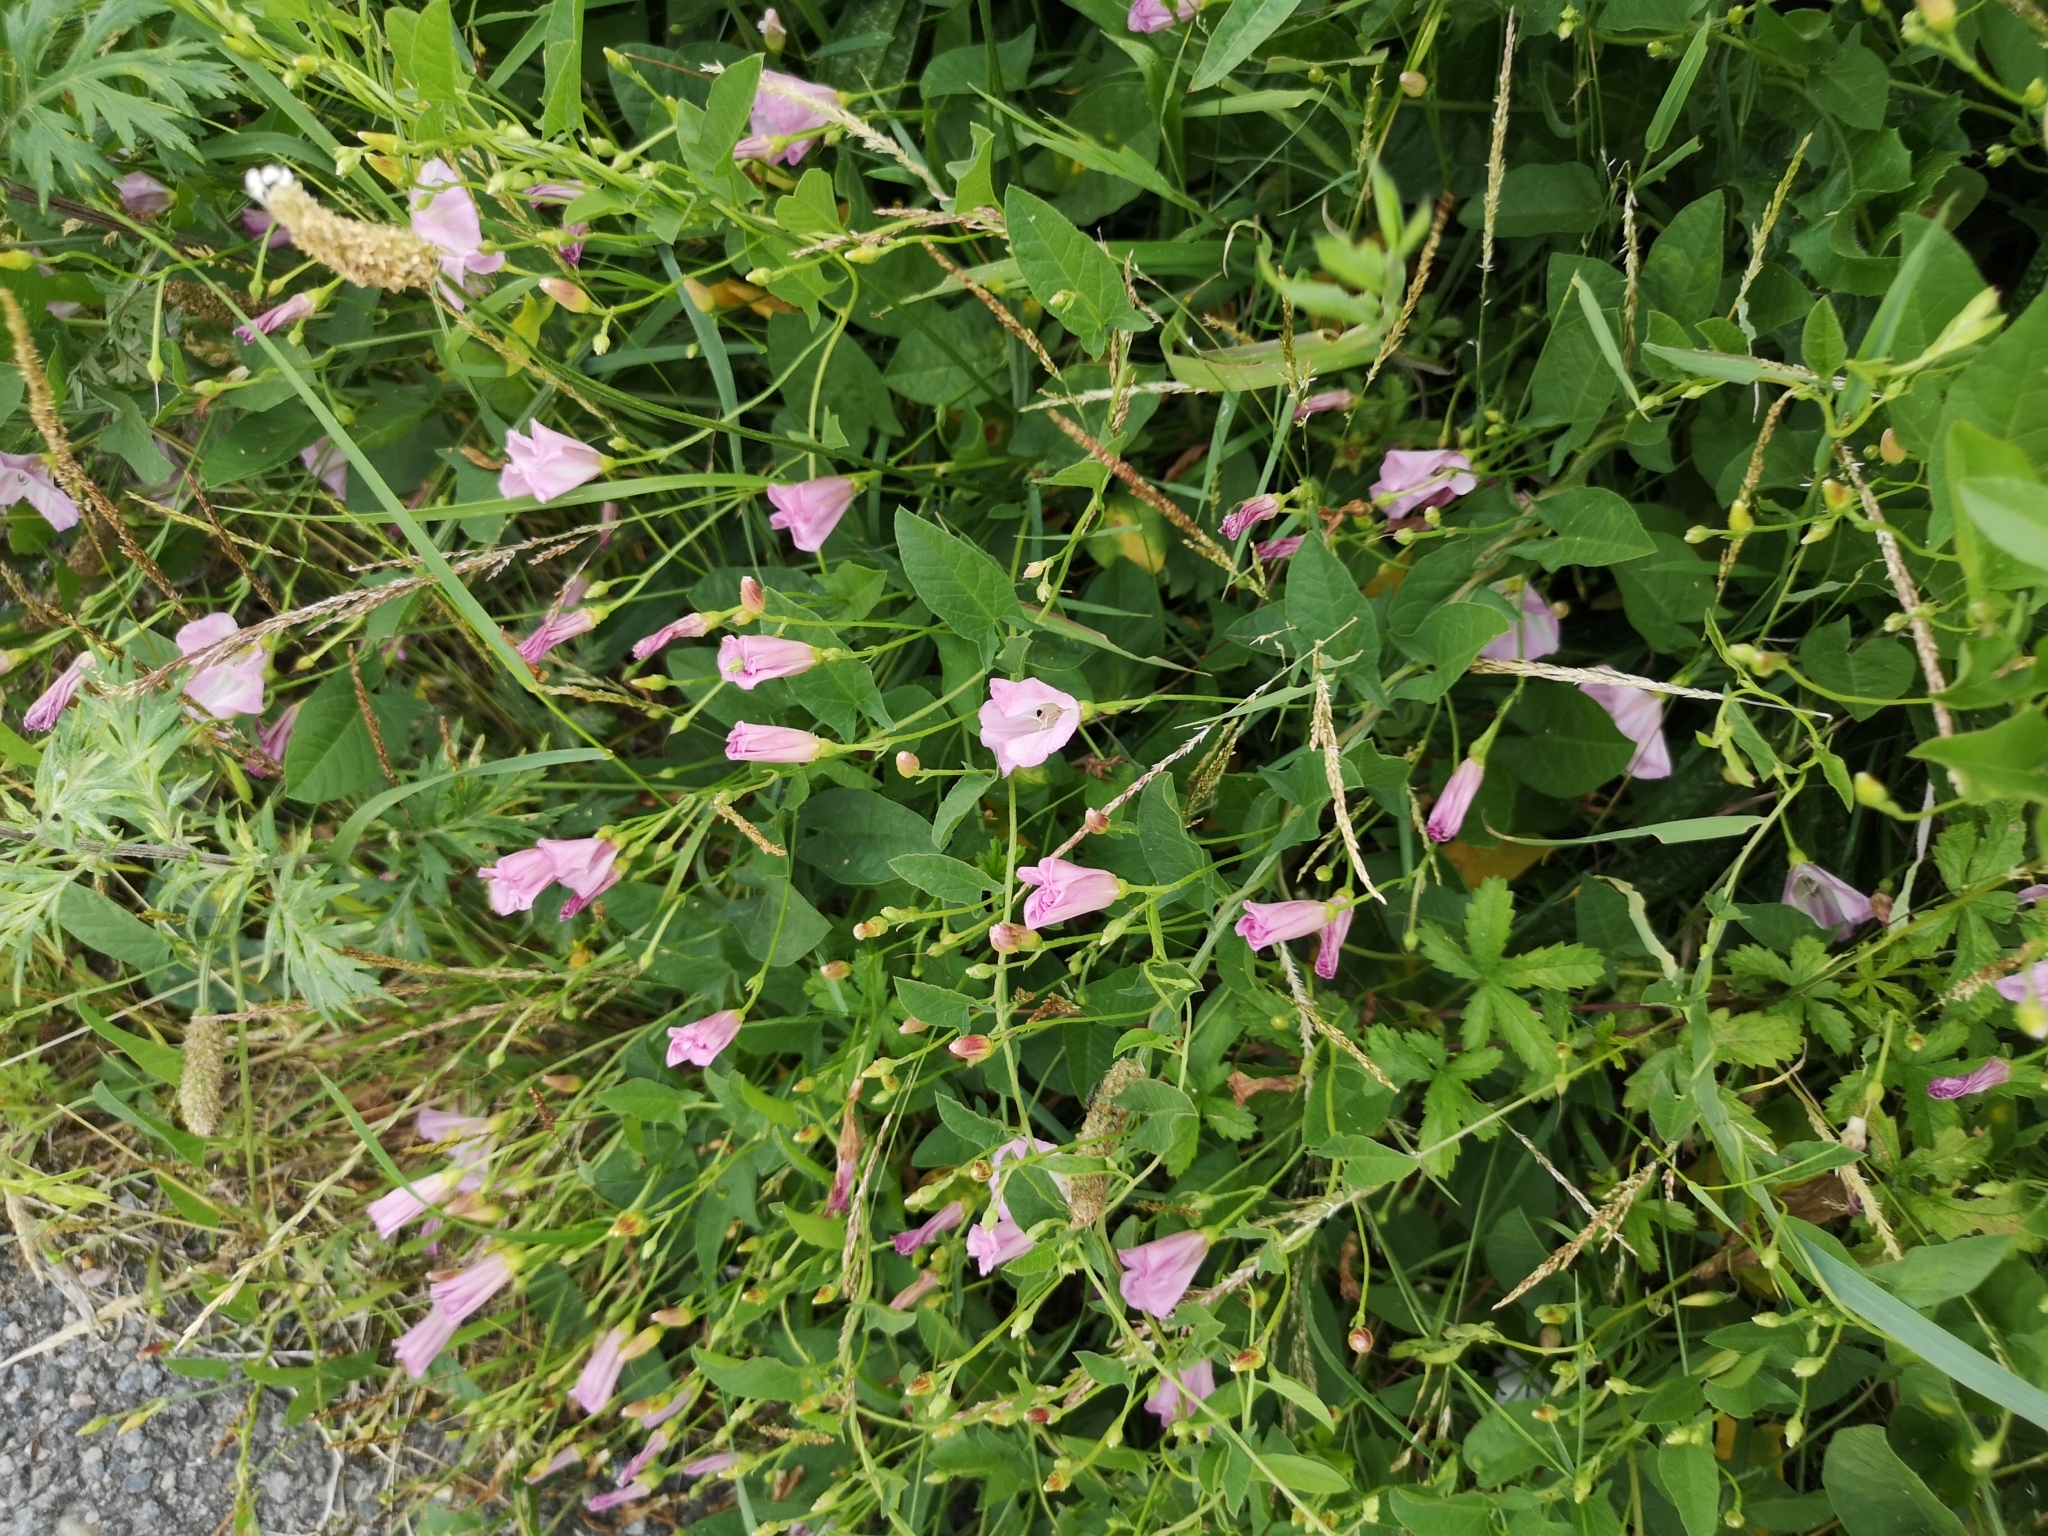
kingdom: Plantae
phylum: Tracheophyta
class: Magnoliopsida
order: Solanales
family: Convolvulaceae
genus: Convolvulus
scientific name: Convolvulus arvensis
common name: Field bindweed
